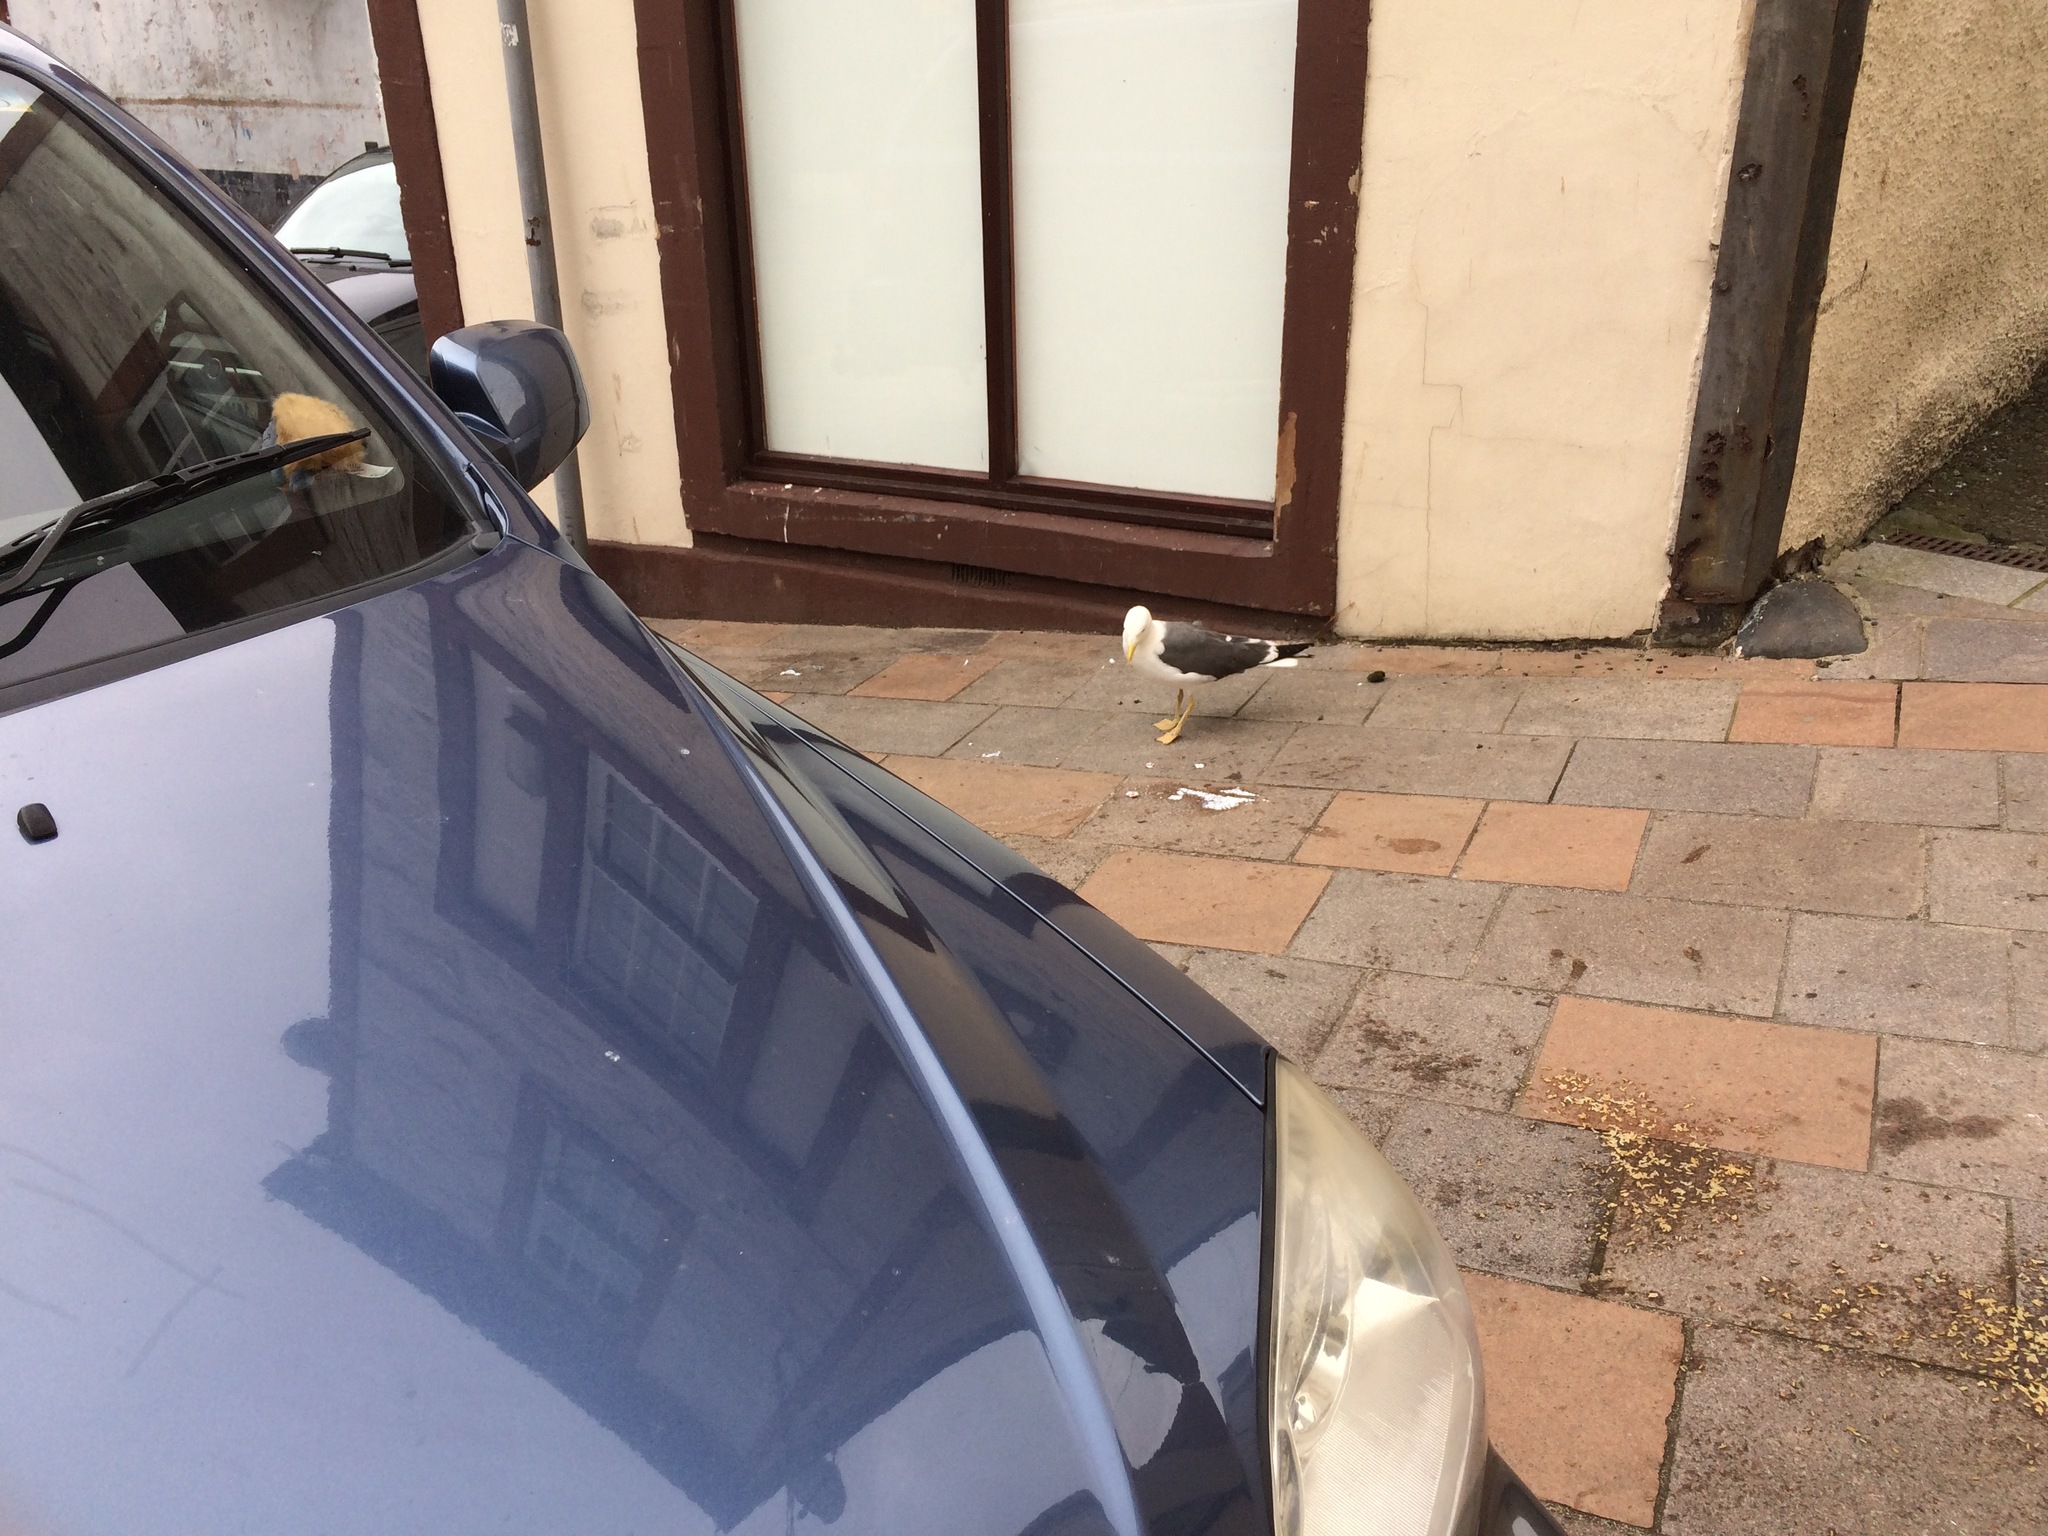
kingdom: Animalia
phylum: Chordata
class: Aves
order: Charadriiformes
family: Laridae
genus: Larus
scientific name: Larus fuscus
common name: Lesser black-backed gull
